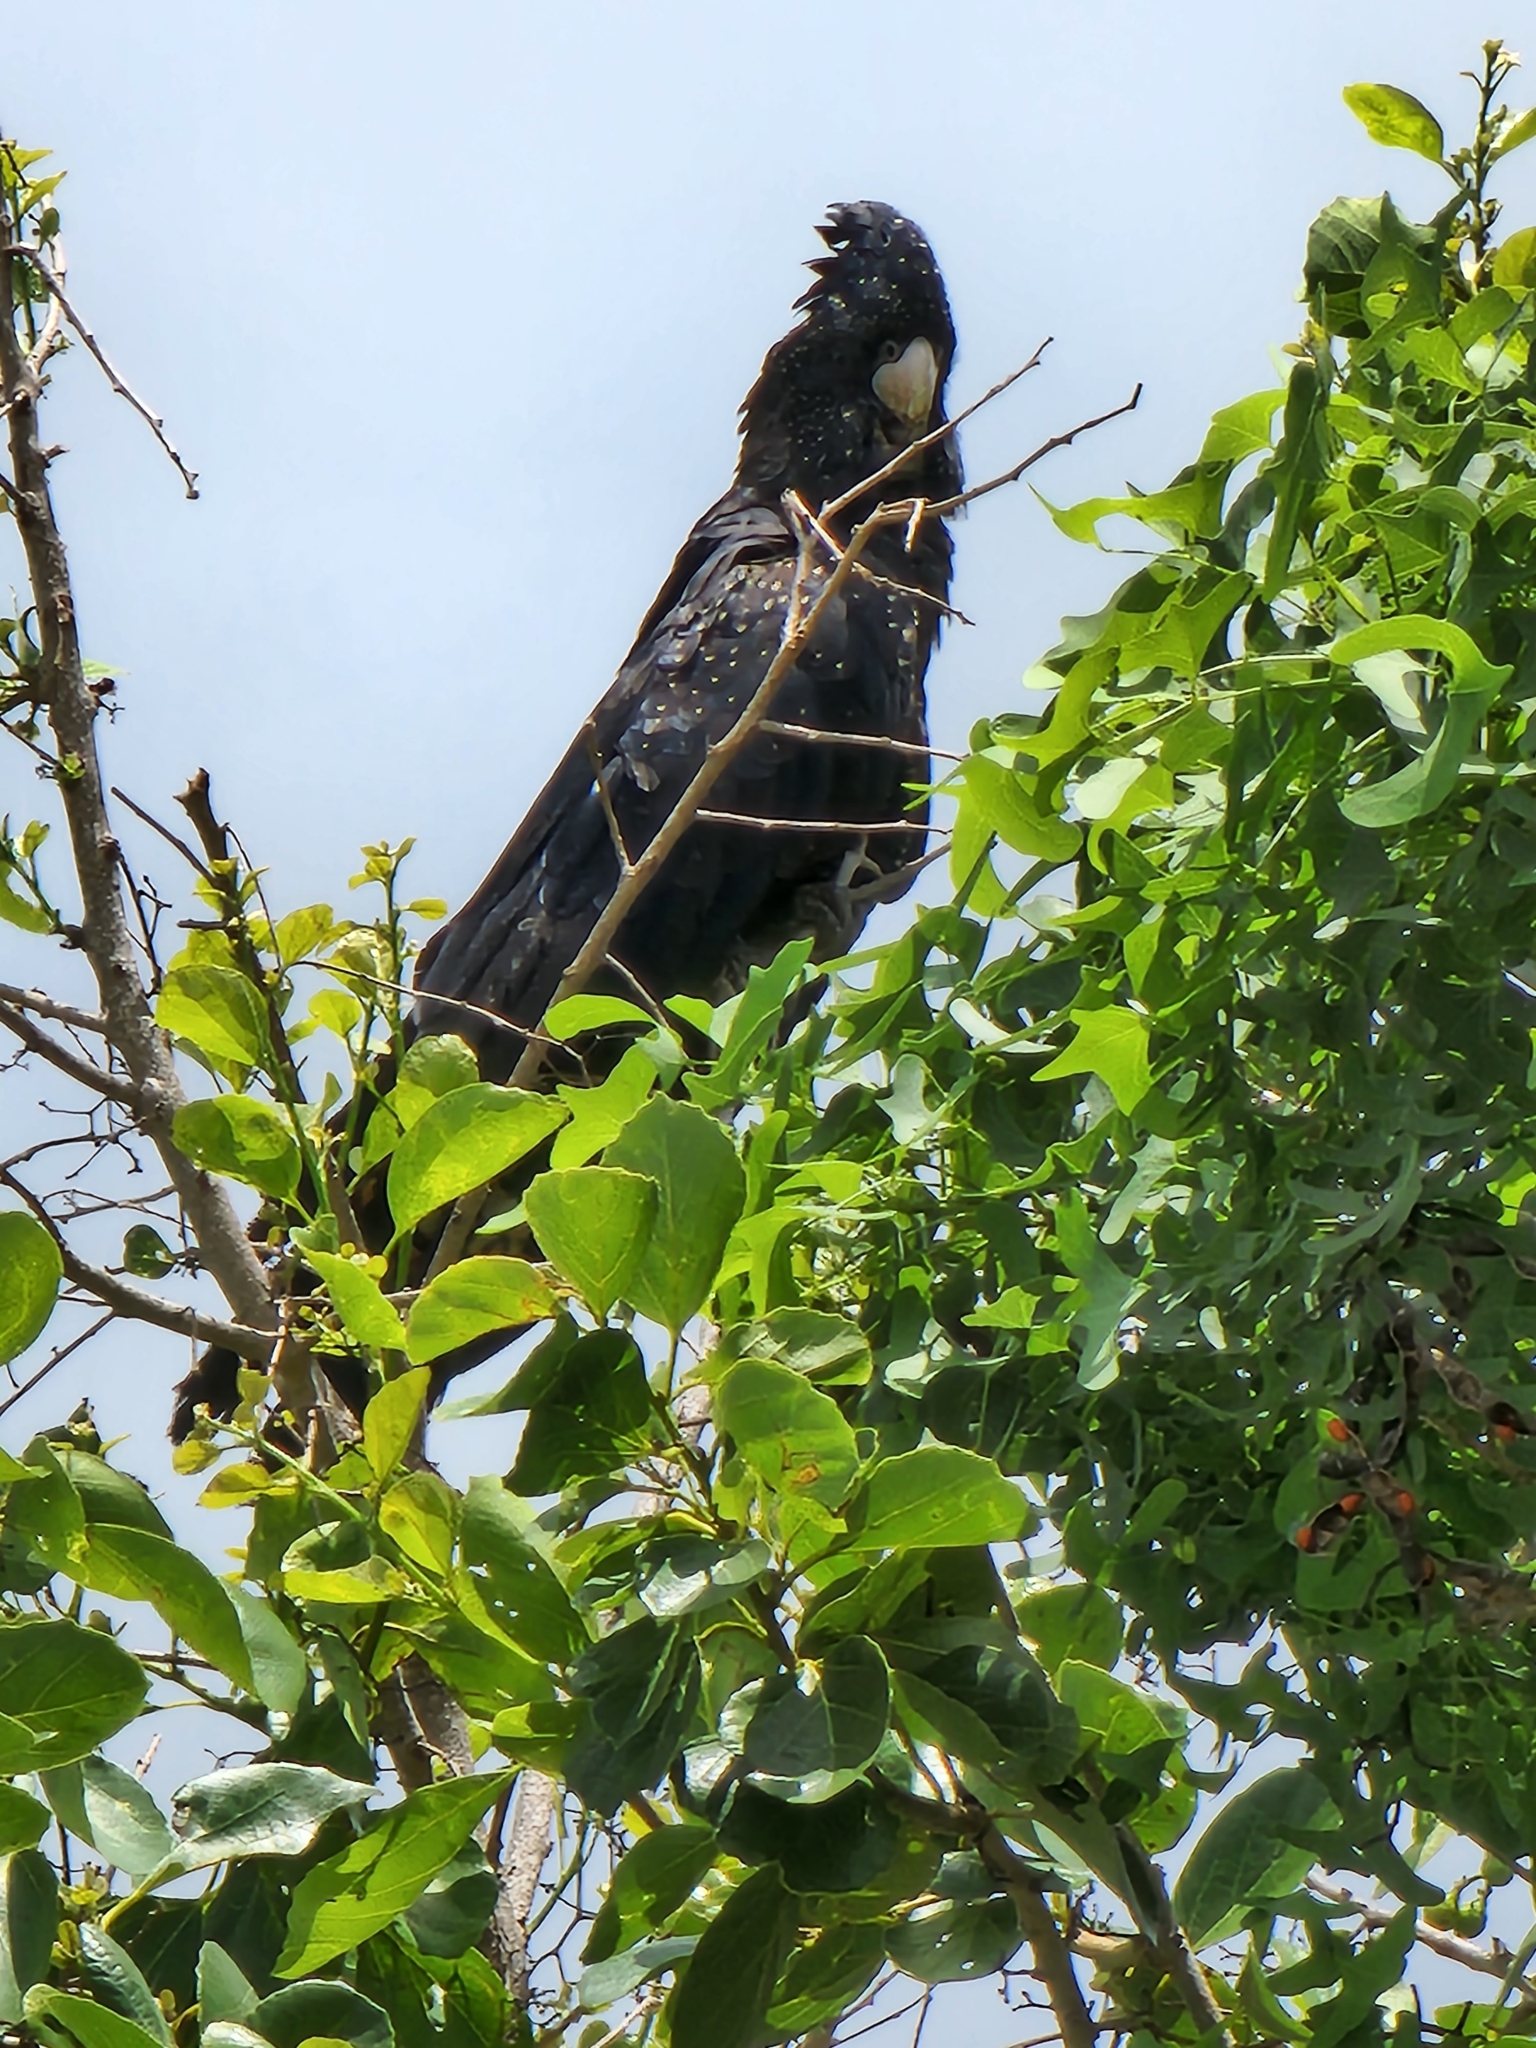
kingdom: Animalia
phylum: Chordata
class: Aves
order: Psittaciformes
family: Psittacidae
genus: Calyptorhynchus
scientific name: Calyptorhynchus banksii
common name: Red-tailed black cockatoo
